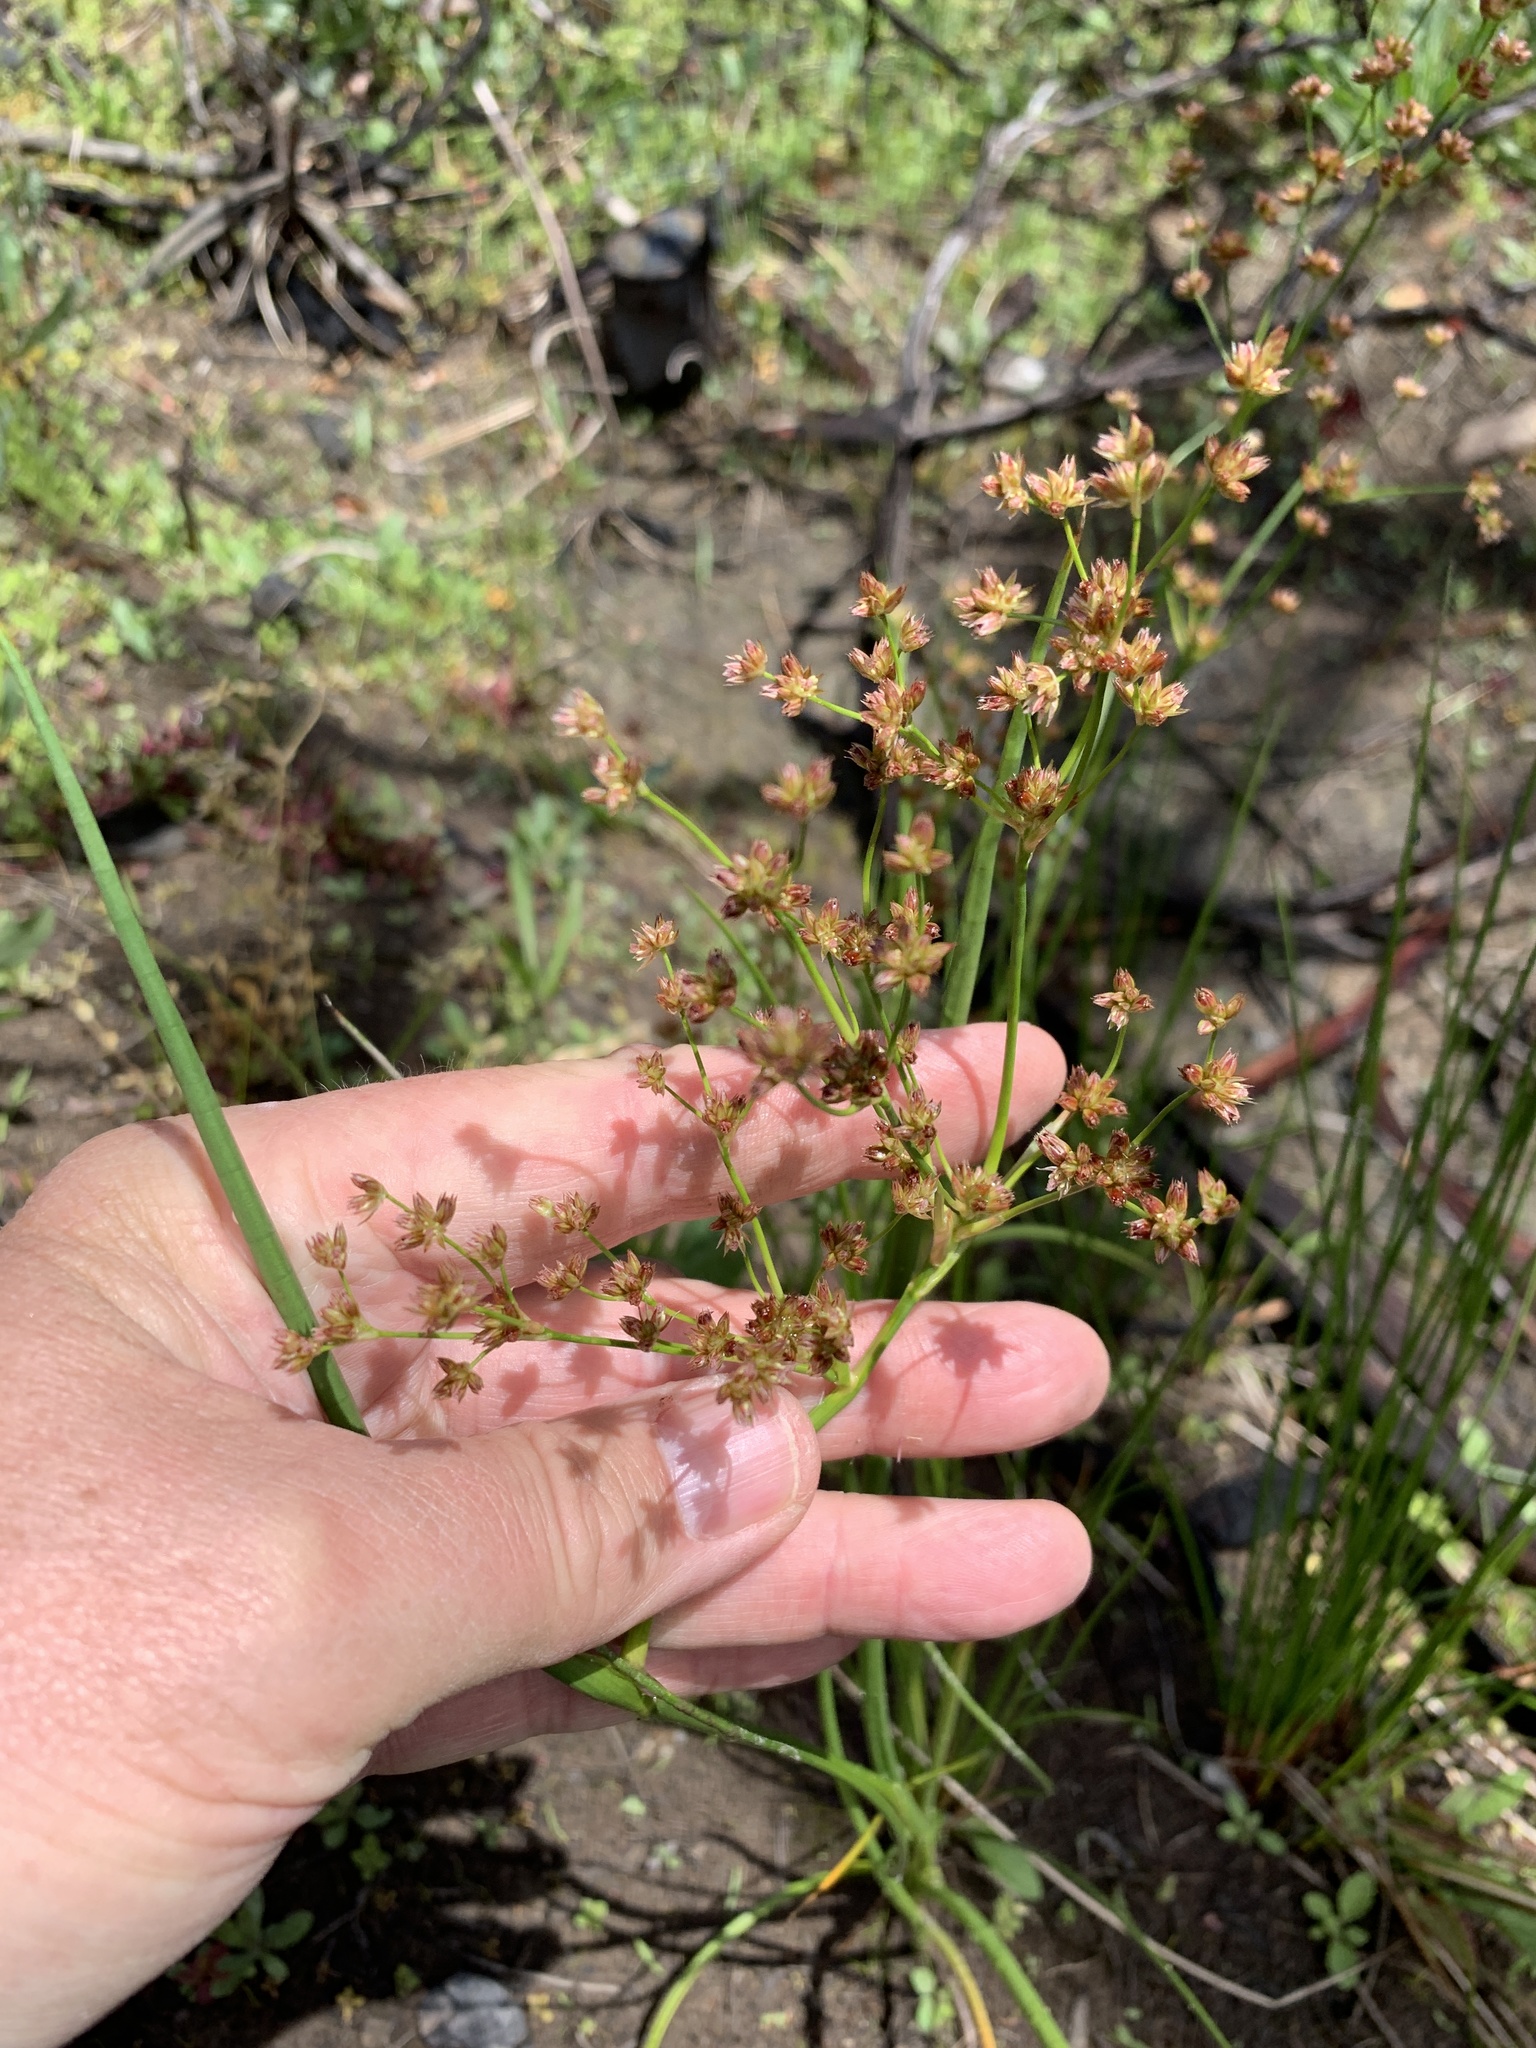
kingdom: Plantae
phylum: Tracheophyta
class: Liliopsida
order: Poales
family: Juncaceae
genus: Juncus
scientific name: Juncus oxycarpus
